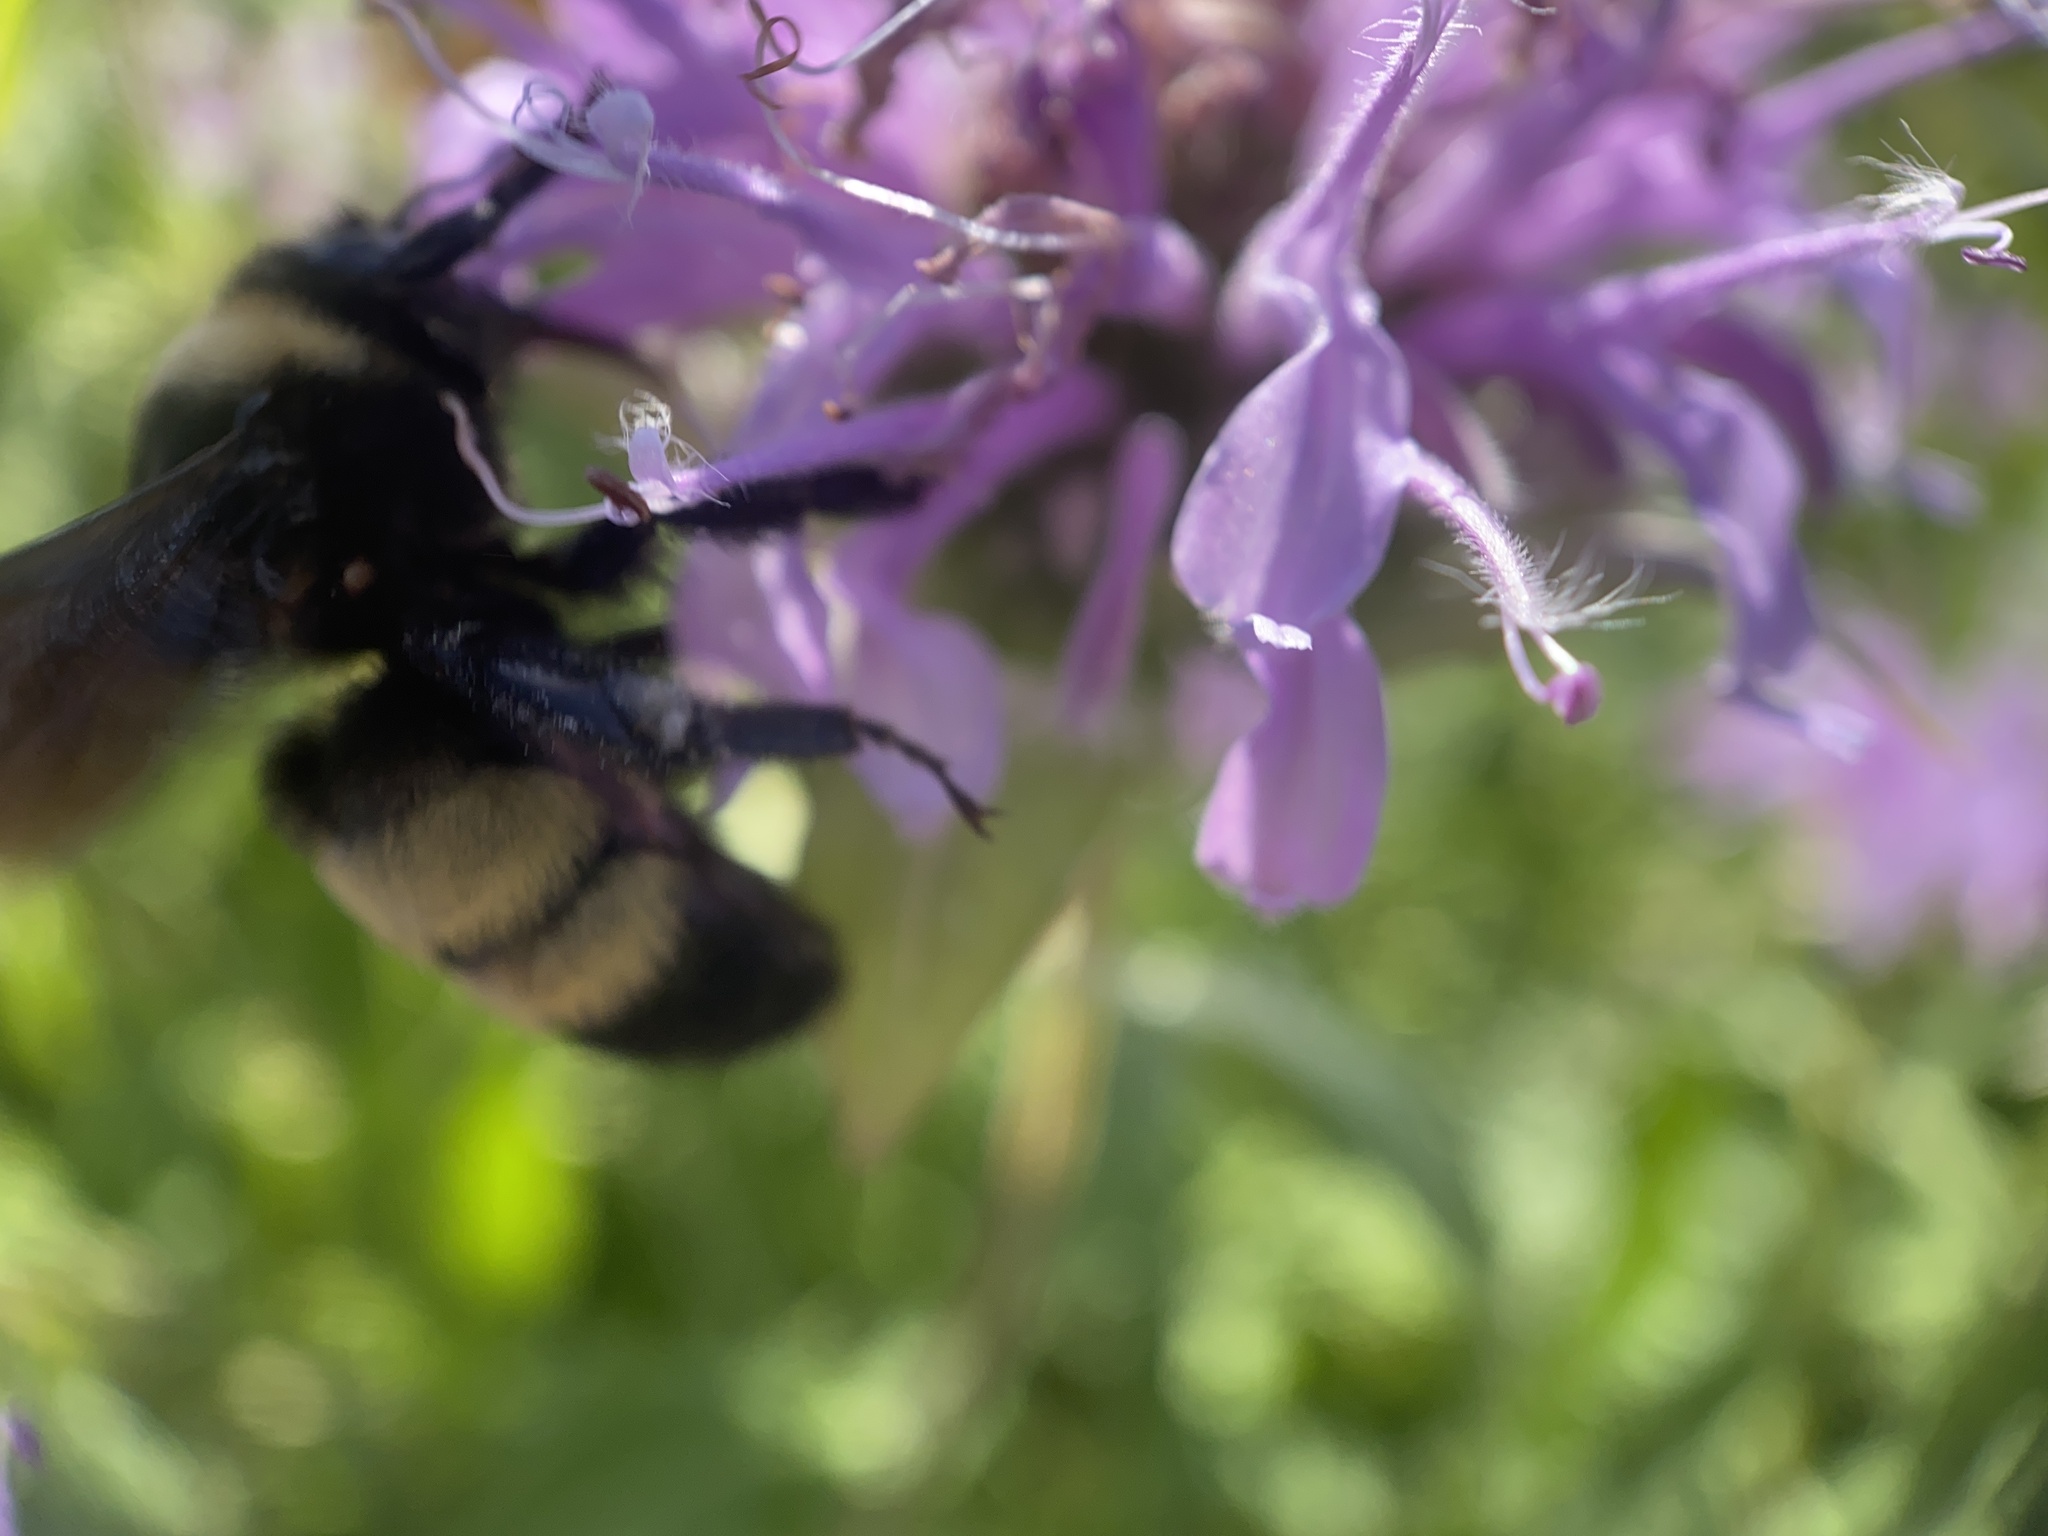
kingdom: Animalia
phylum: Arthropoda
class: Insecta
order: Hymenoptera
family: Apidae
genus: Bombus
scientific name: Bombus auricomus
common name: Black and gold bumble bee
